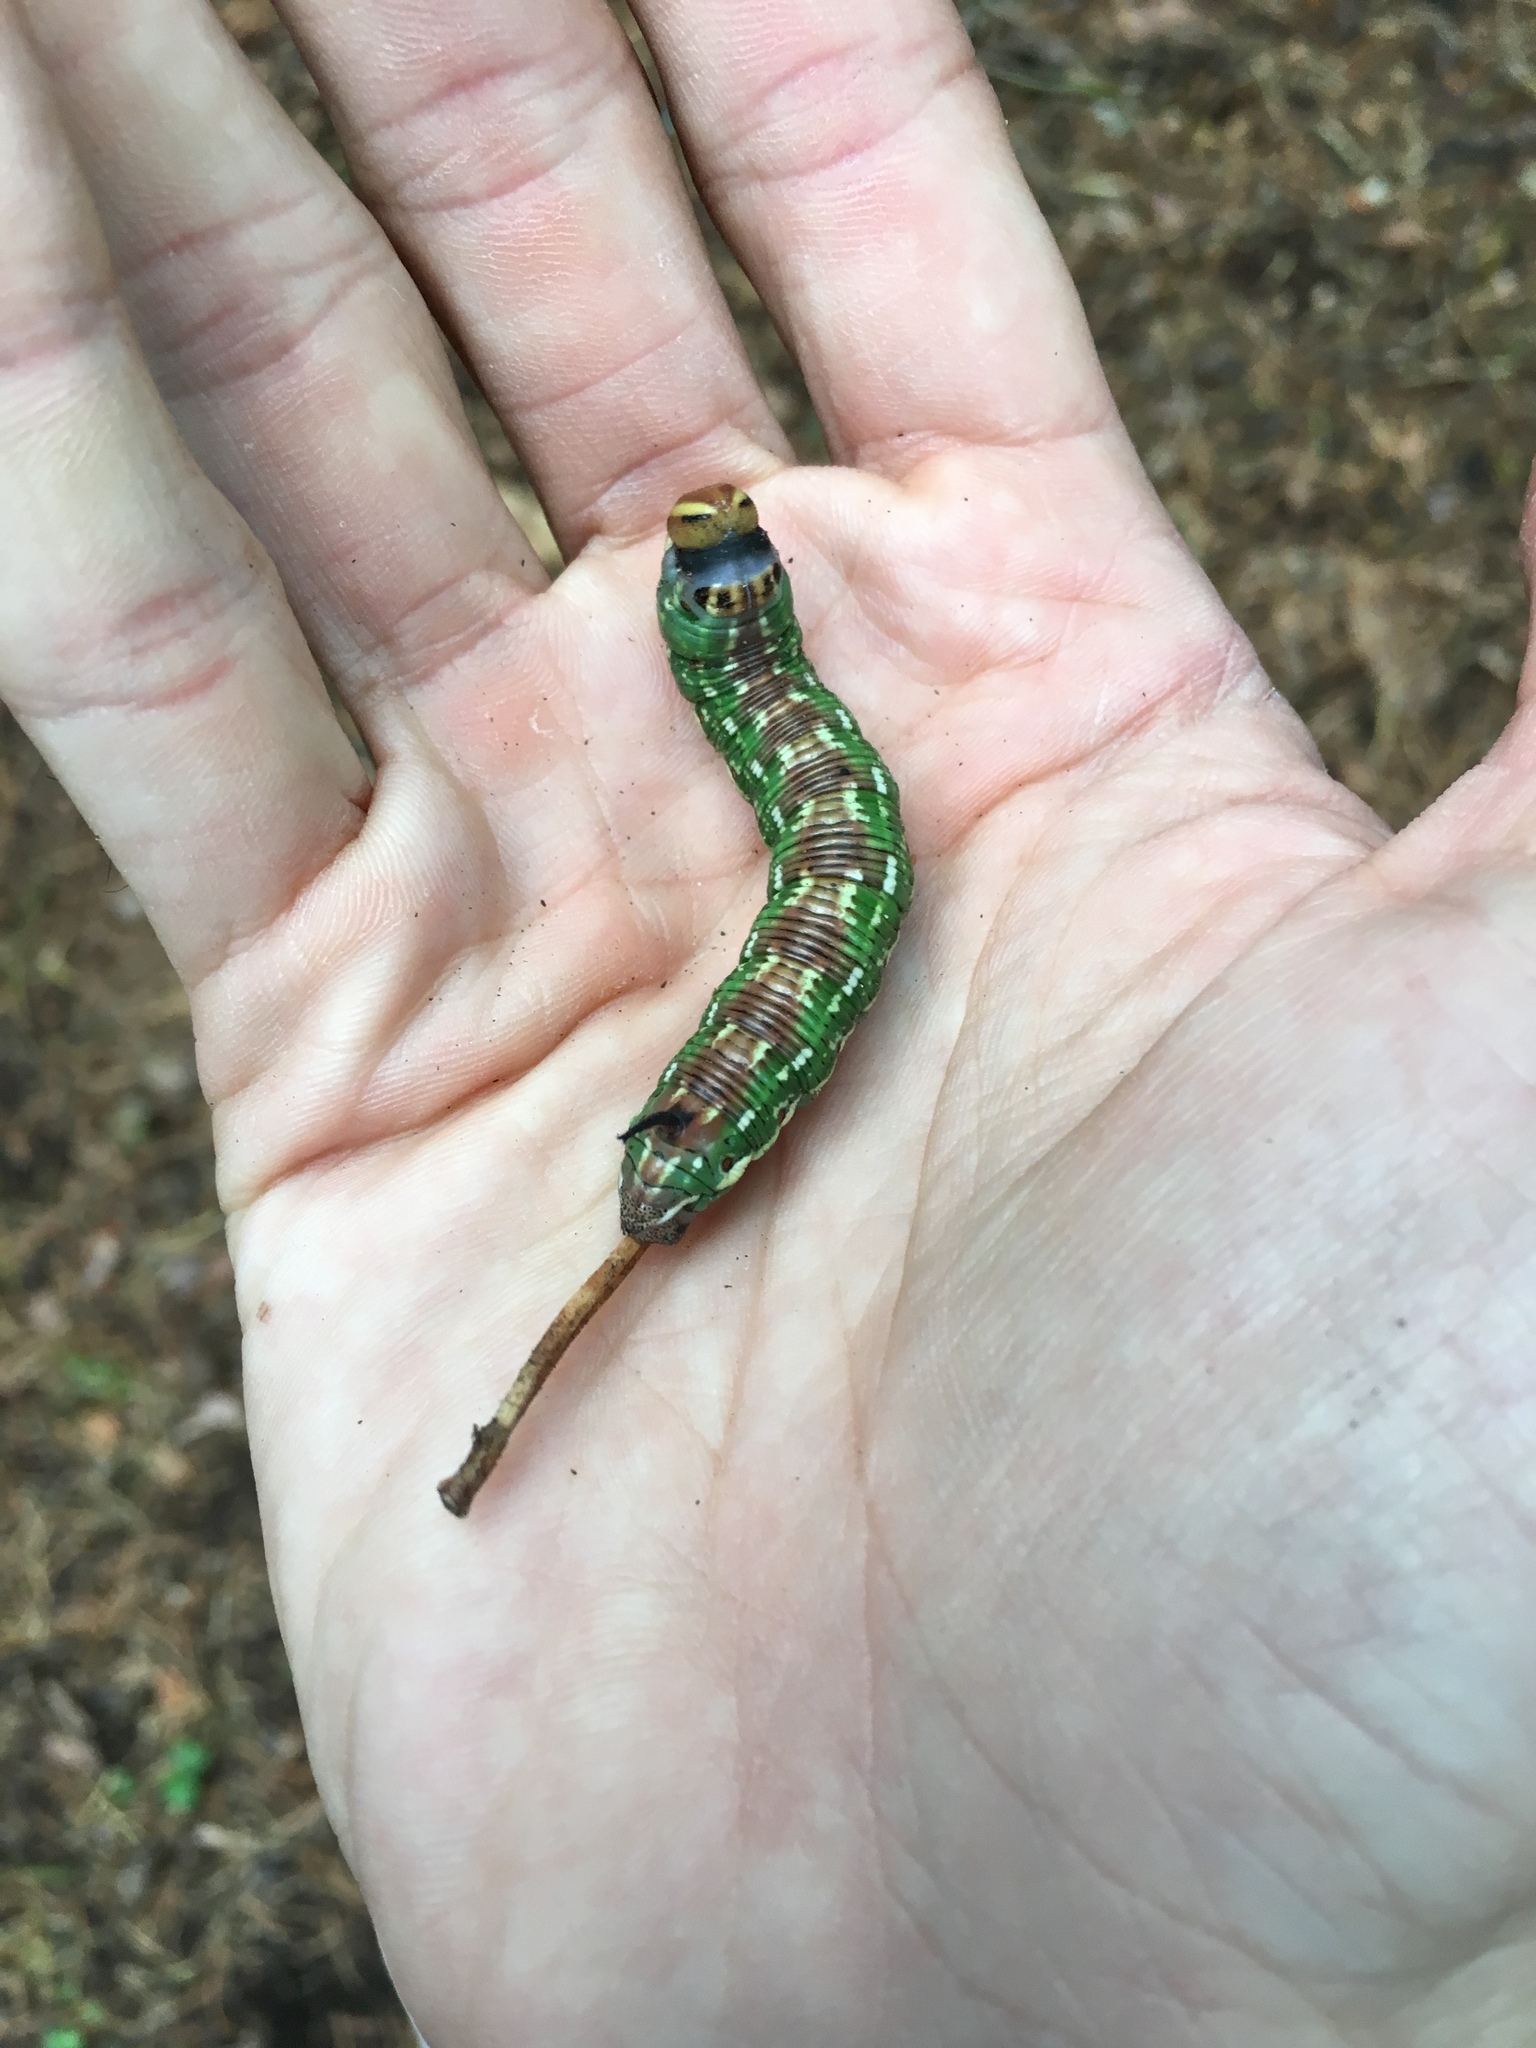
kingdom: Animalia
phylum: Arthropoda
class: Insecta
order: Lepidoptera
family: Sphingidae
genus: Sphinx
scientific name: Sphinx pinastri
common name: Pine hawk-moth
